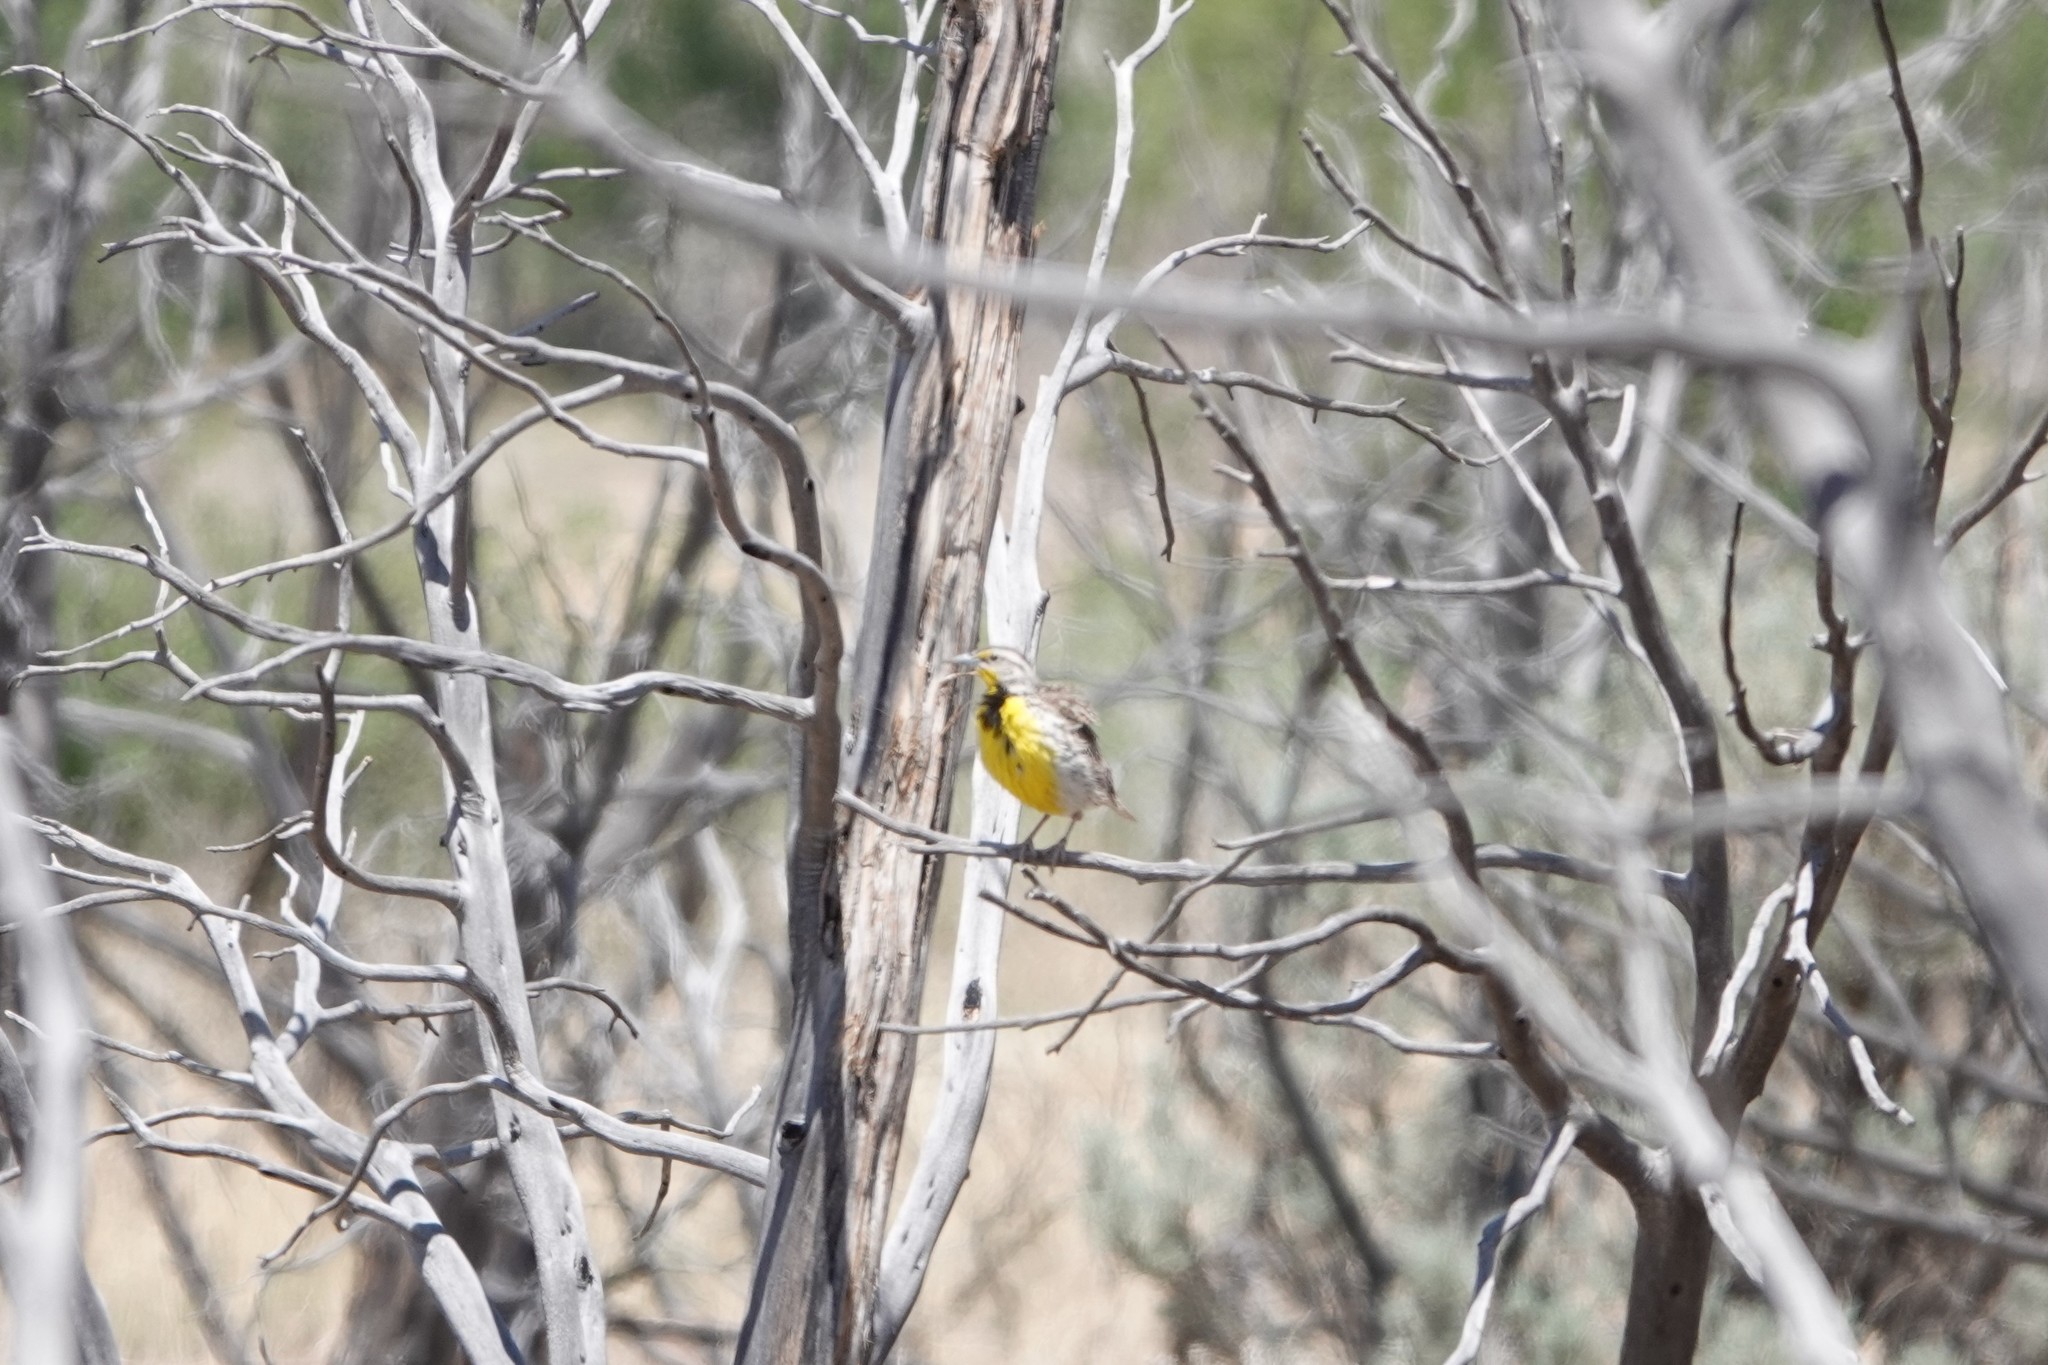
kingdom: Animalia
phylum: Chordata
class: Aves
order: Passeriformes
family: Icteridae
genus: Sturnella
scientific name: Sturnella neglecta
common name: Western meadowlark
